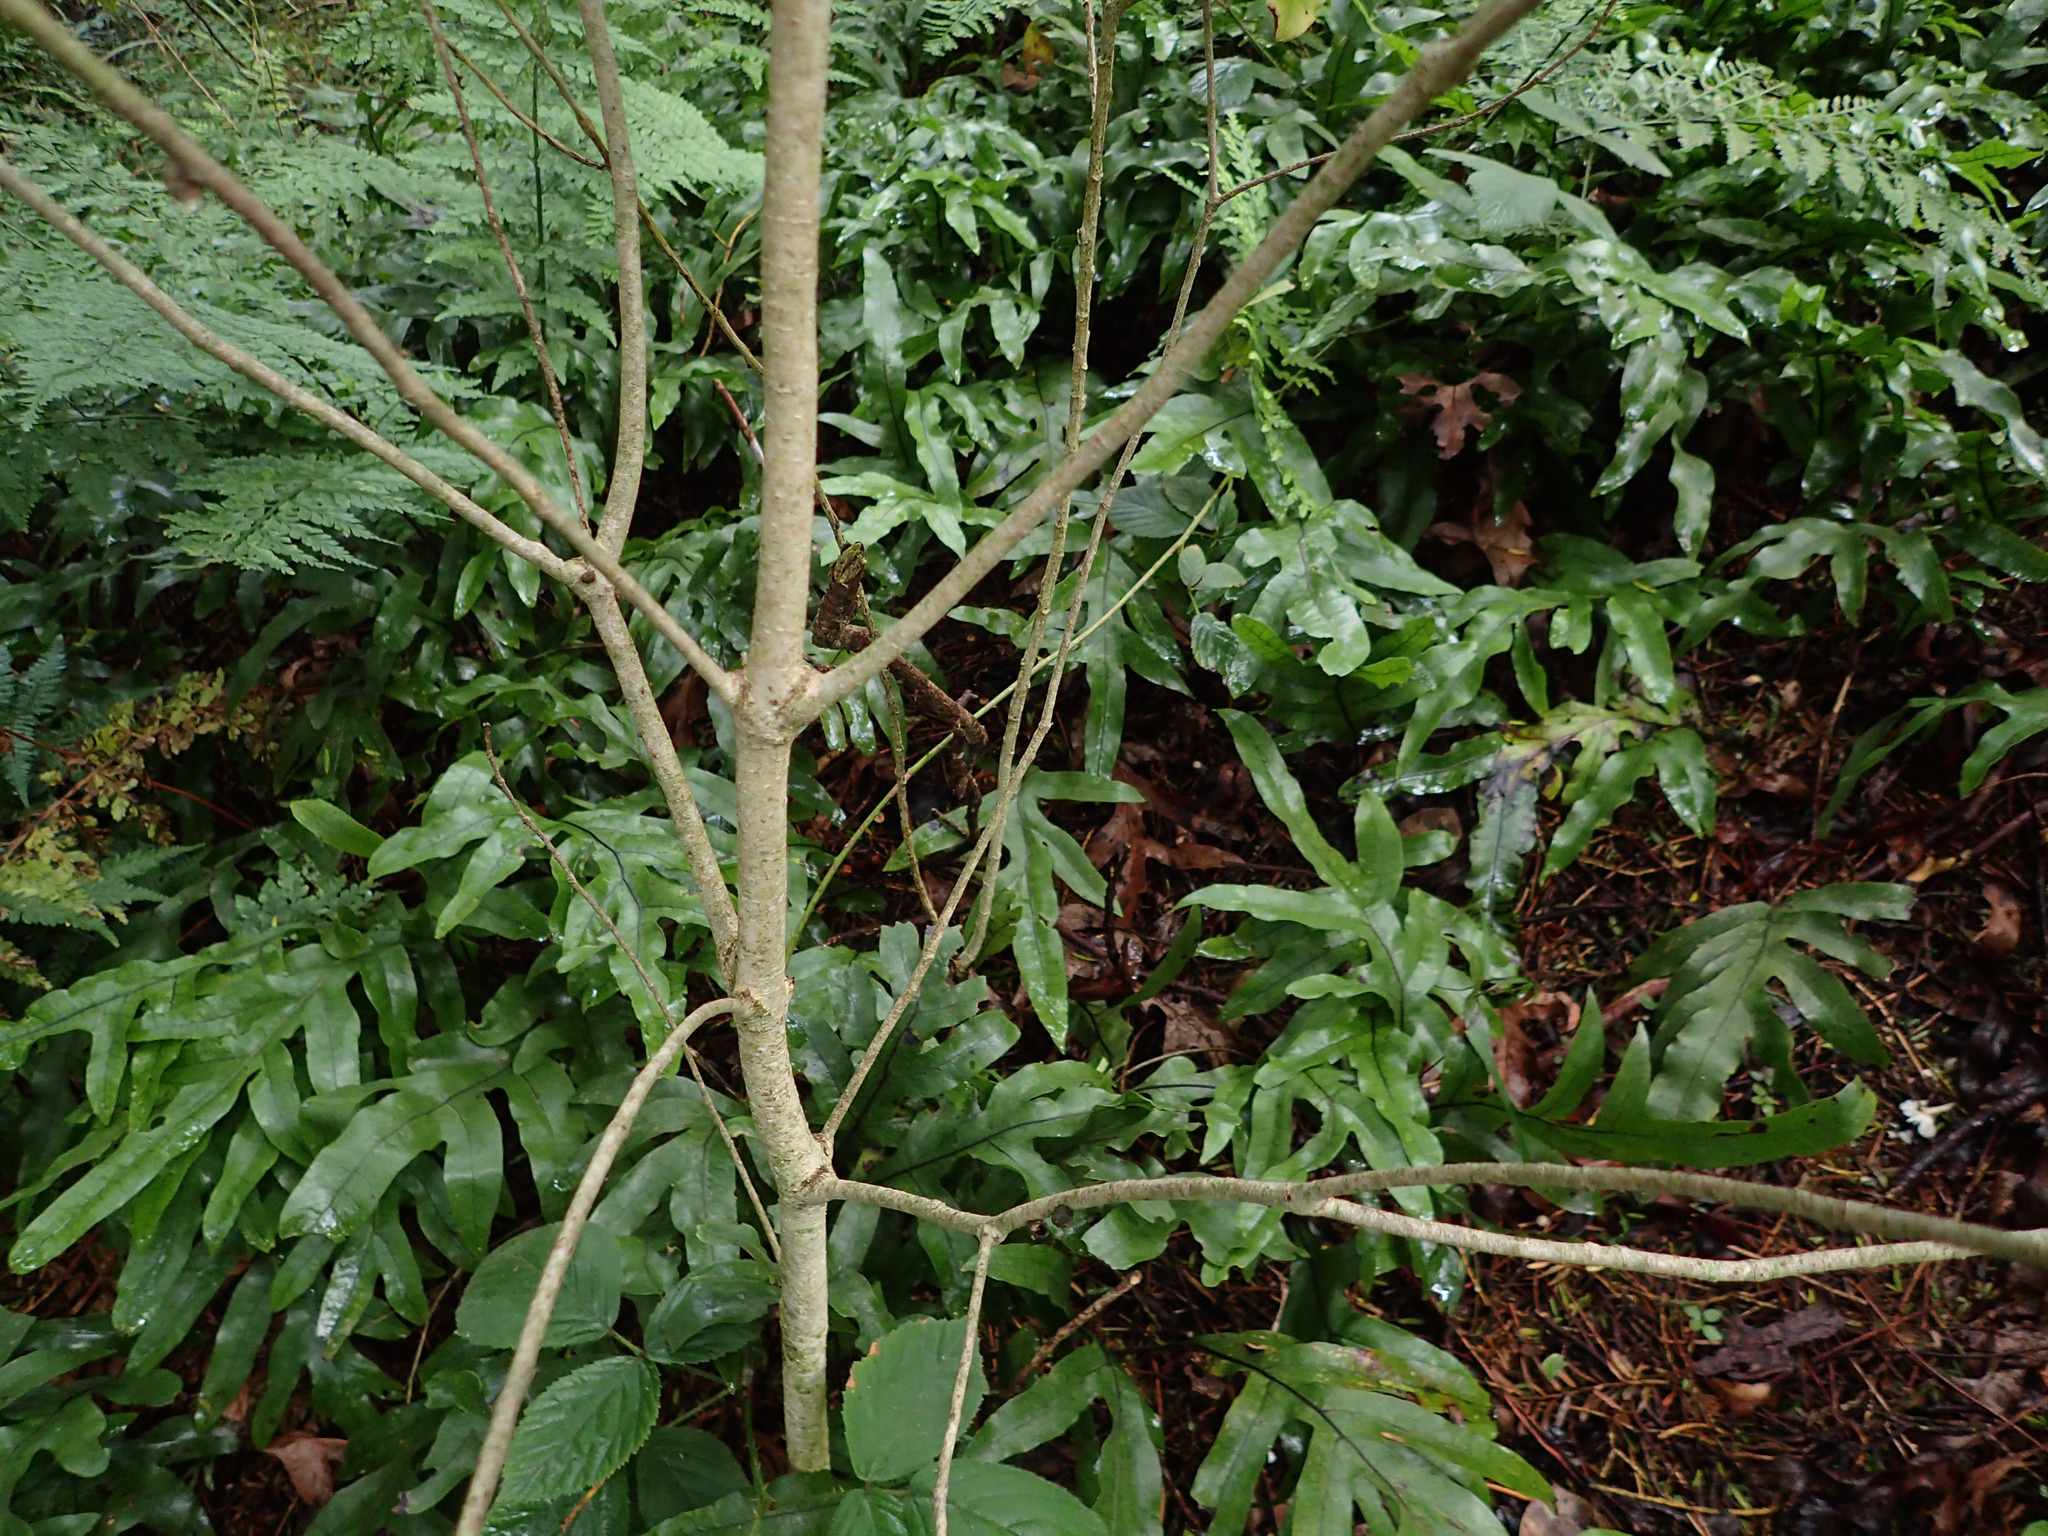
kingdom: Plantae
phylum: Tracheophyta
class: Magnoliopsida
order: Apiales
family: Pittosporaceae
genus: Pittosporum
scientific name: Pittosporum eugenioides
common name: Lemonwood
